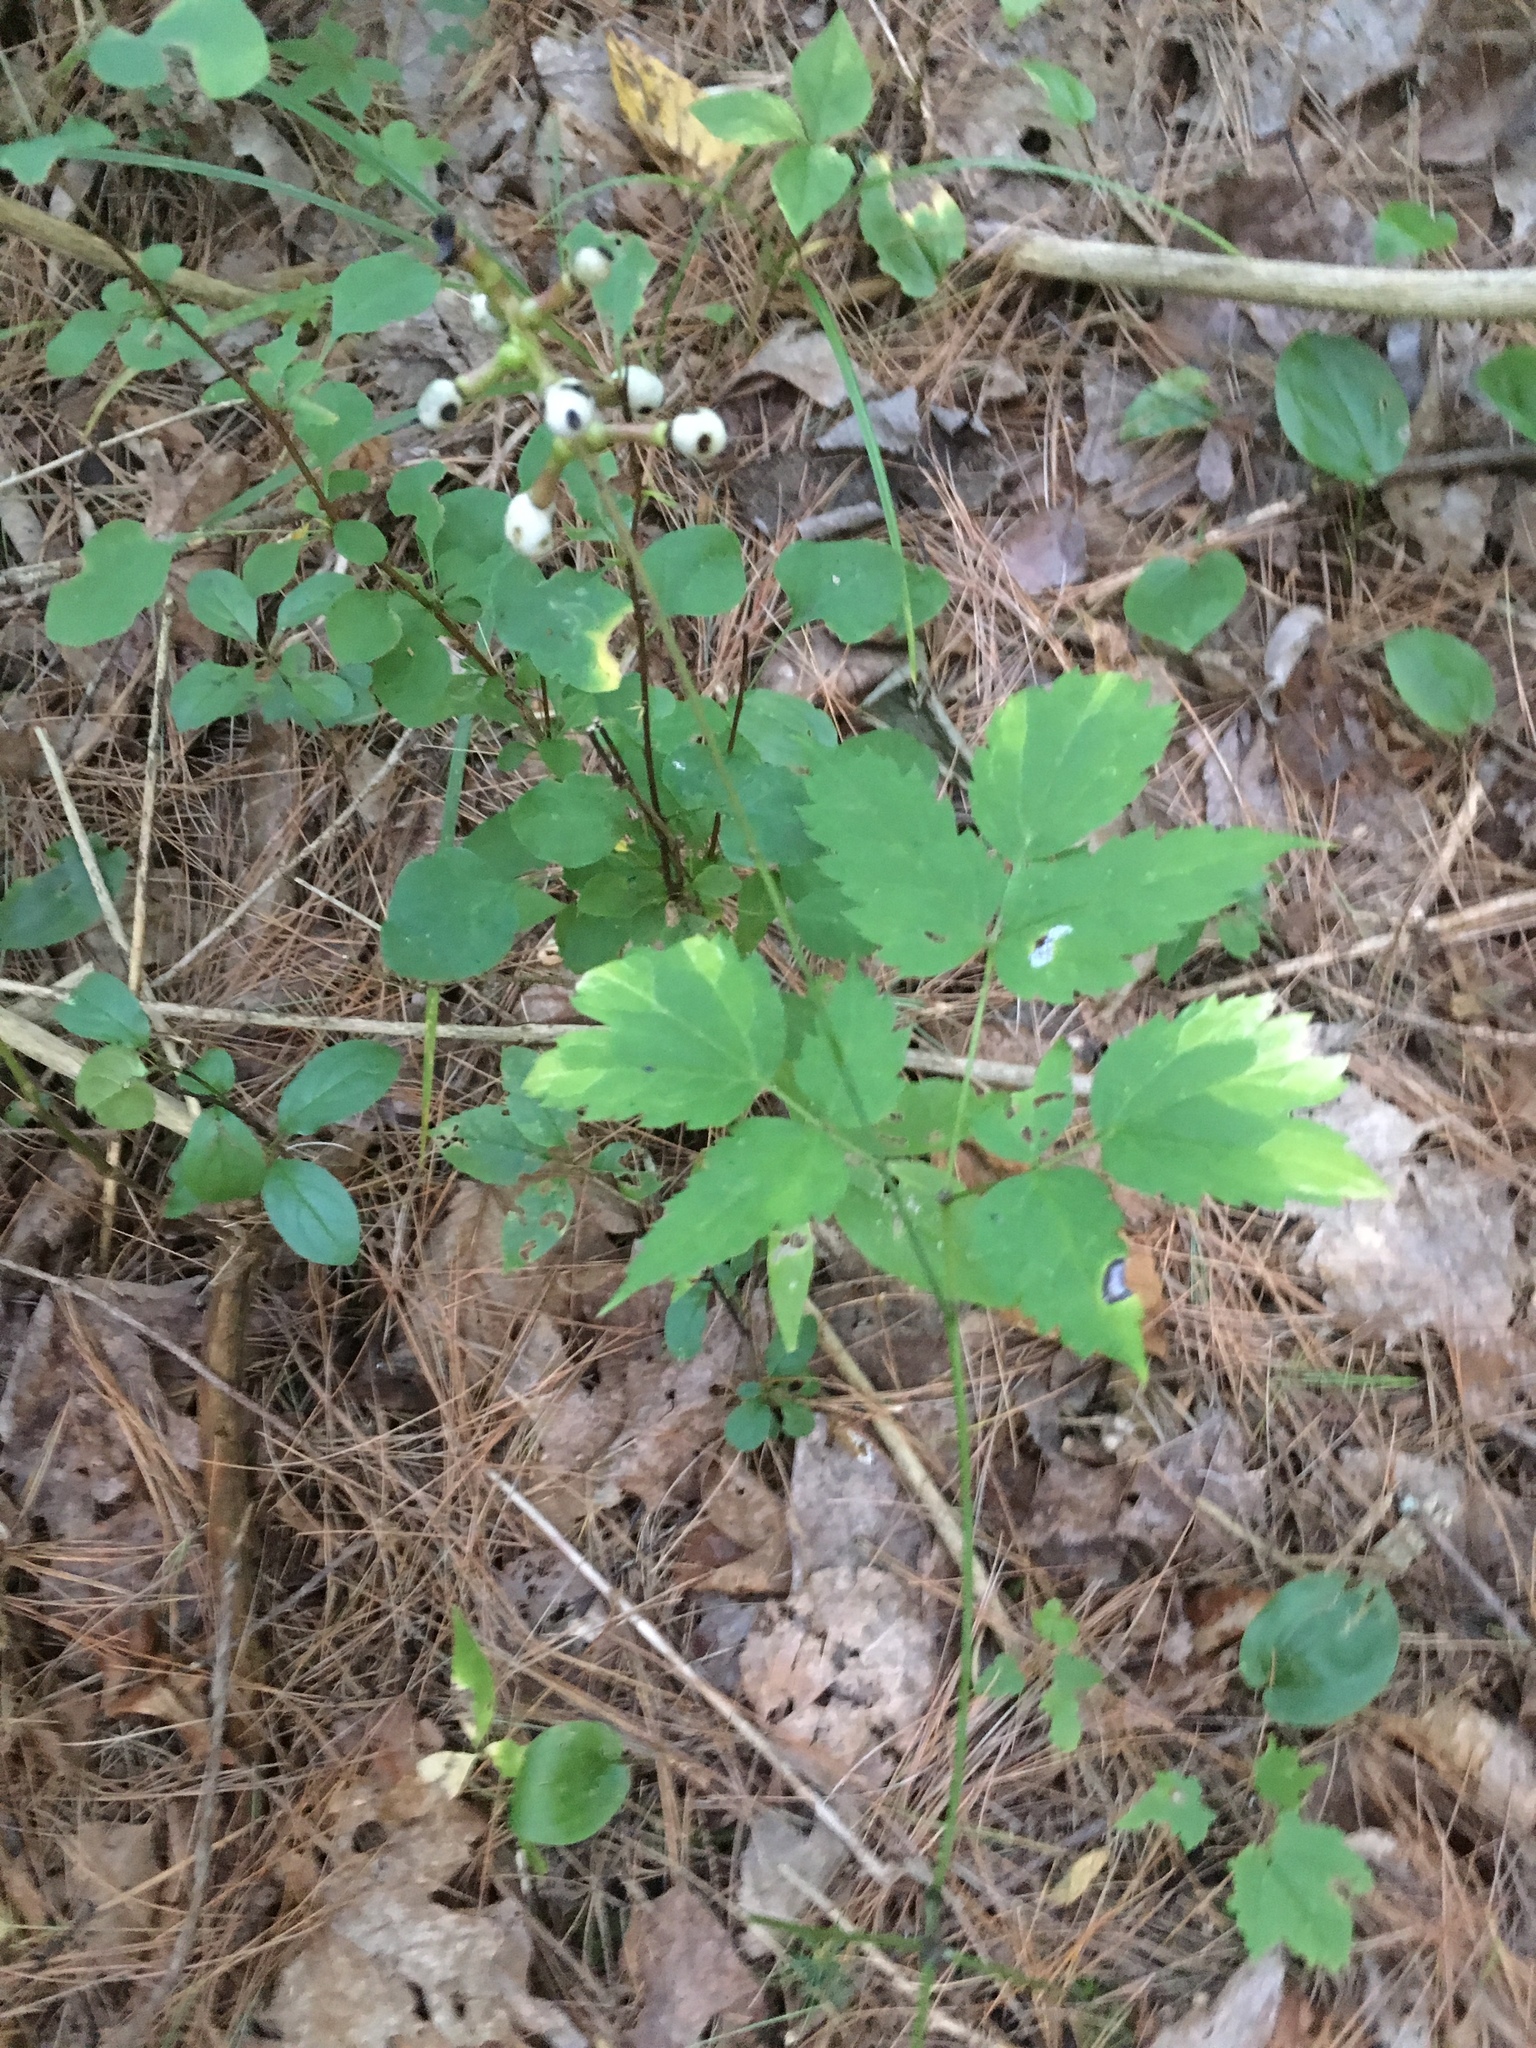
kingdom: Plantae
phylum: Tracheophyta
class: Magnoliopsida
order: Ranunculales
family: Ranunculaceae
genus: Actaea
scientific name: Actaea pachypoda
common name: Doll's-eyes
